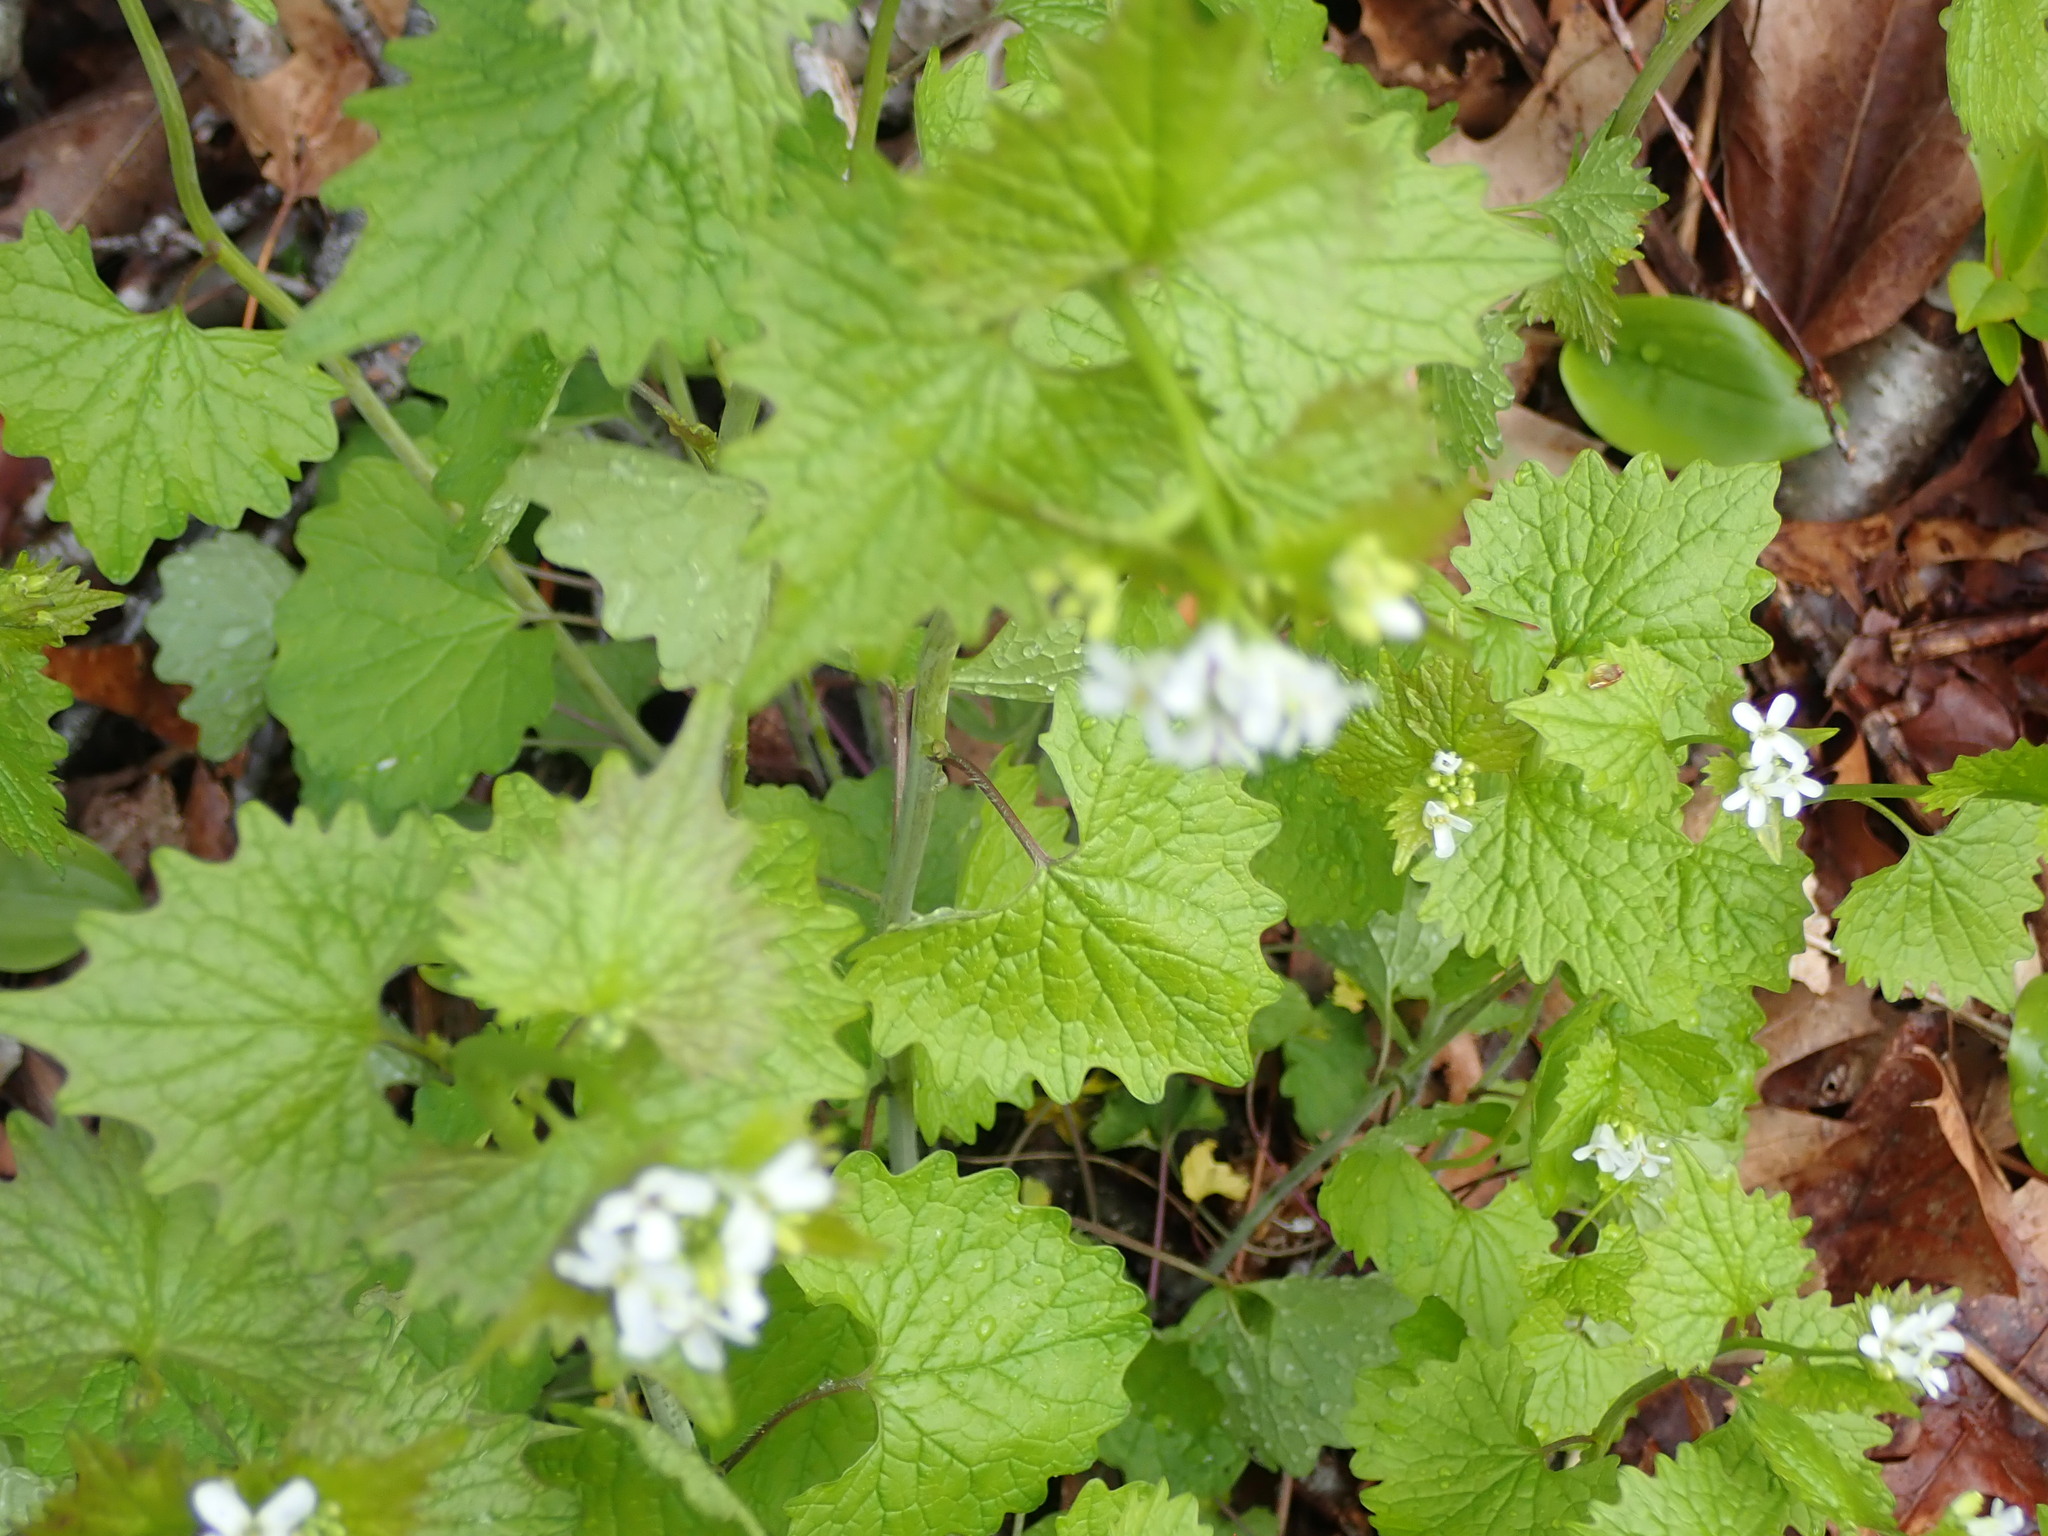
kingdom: Plantae
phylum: Tracheophyta
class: Magnoliopsida
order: Brassicales
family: Brassicaceae
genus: Alliaria
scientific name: Alliaria petiolata
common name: Garlic mustard
